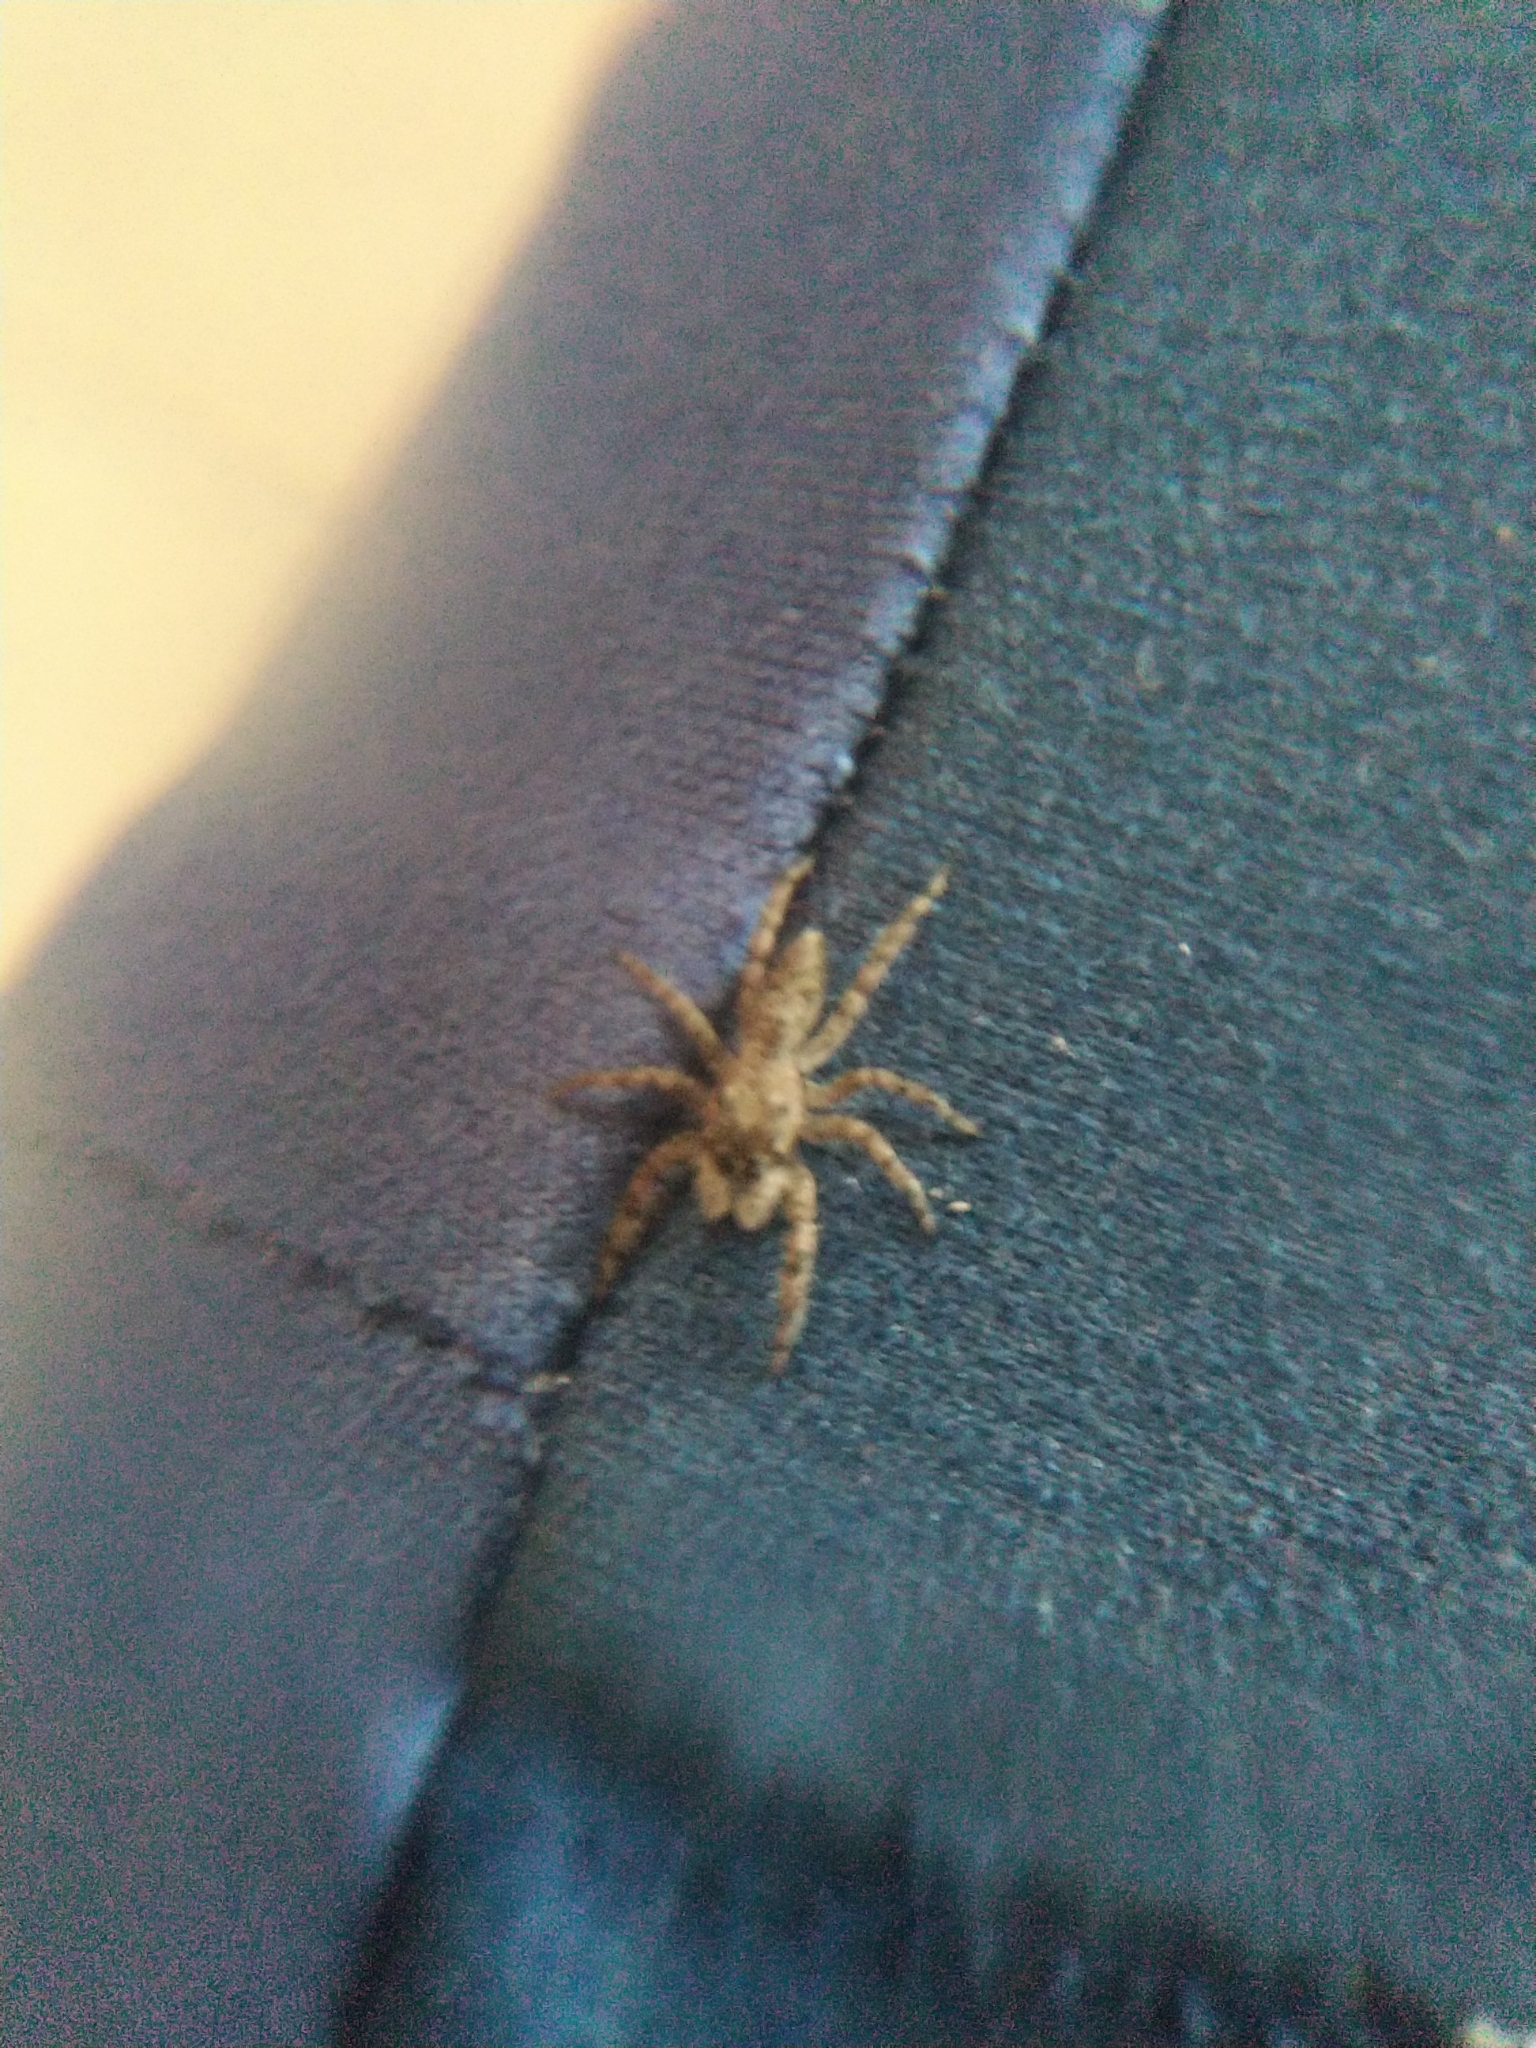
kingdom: Animalia
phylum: Arthropoda
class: Arachnida
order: Araneae
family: Salticidae
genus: Platycryptus
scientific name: Platycryptus undatus
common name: Tan jumping spider
